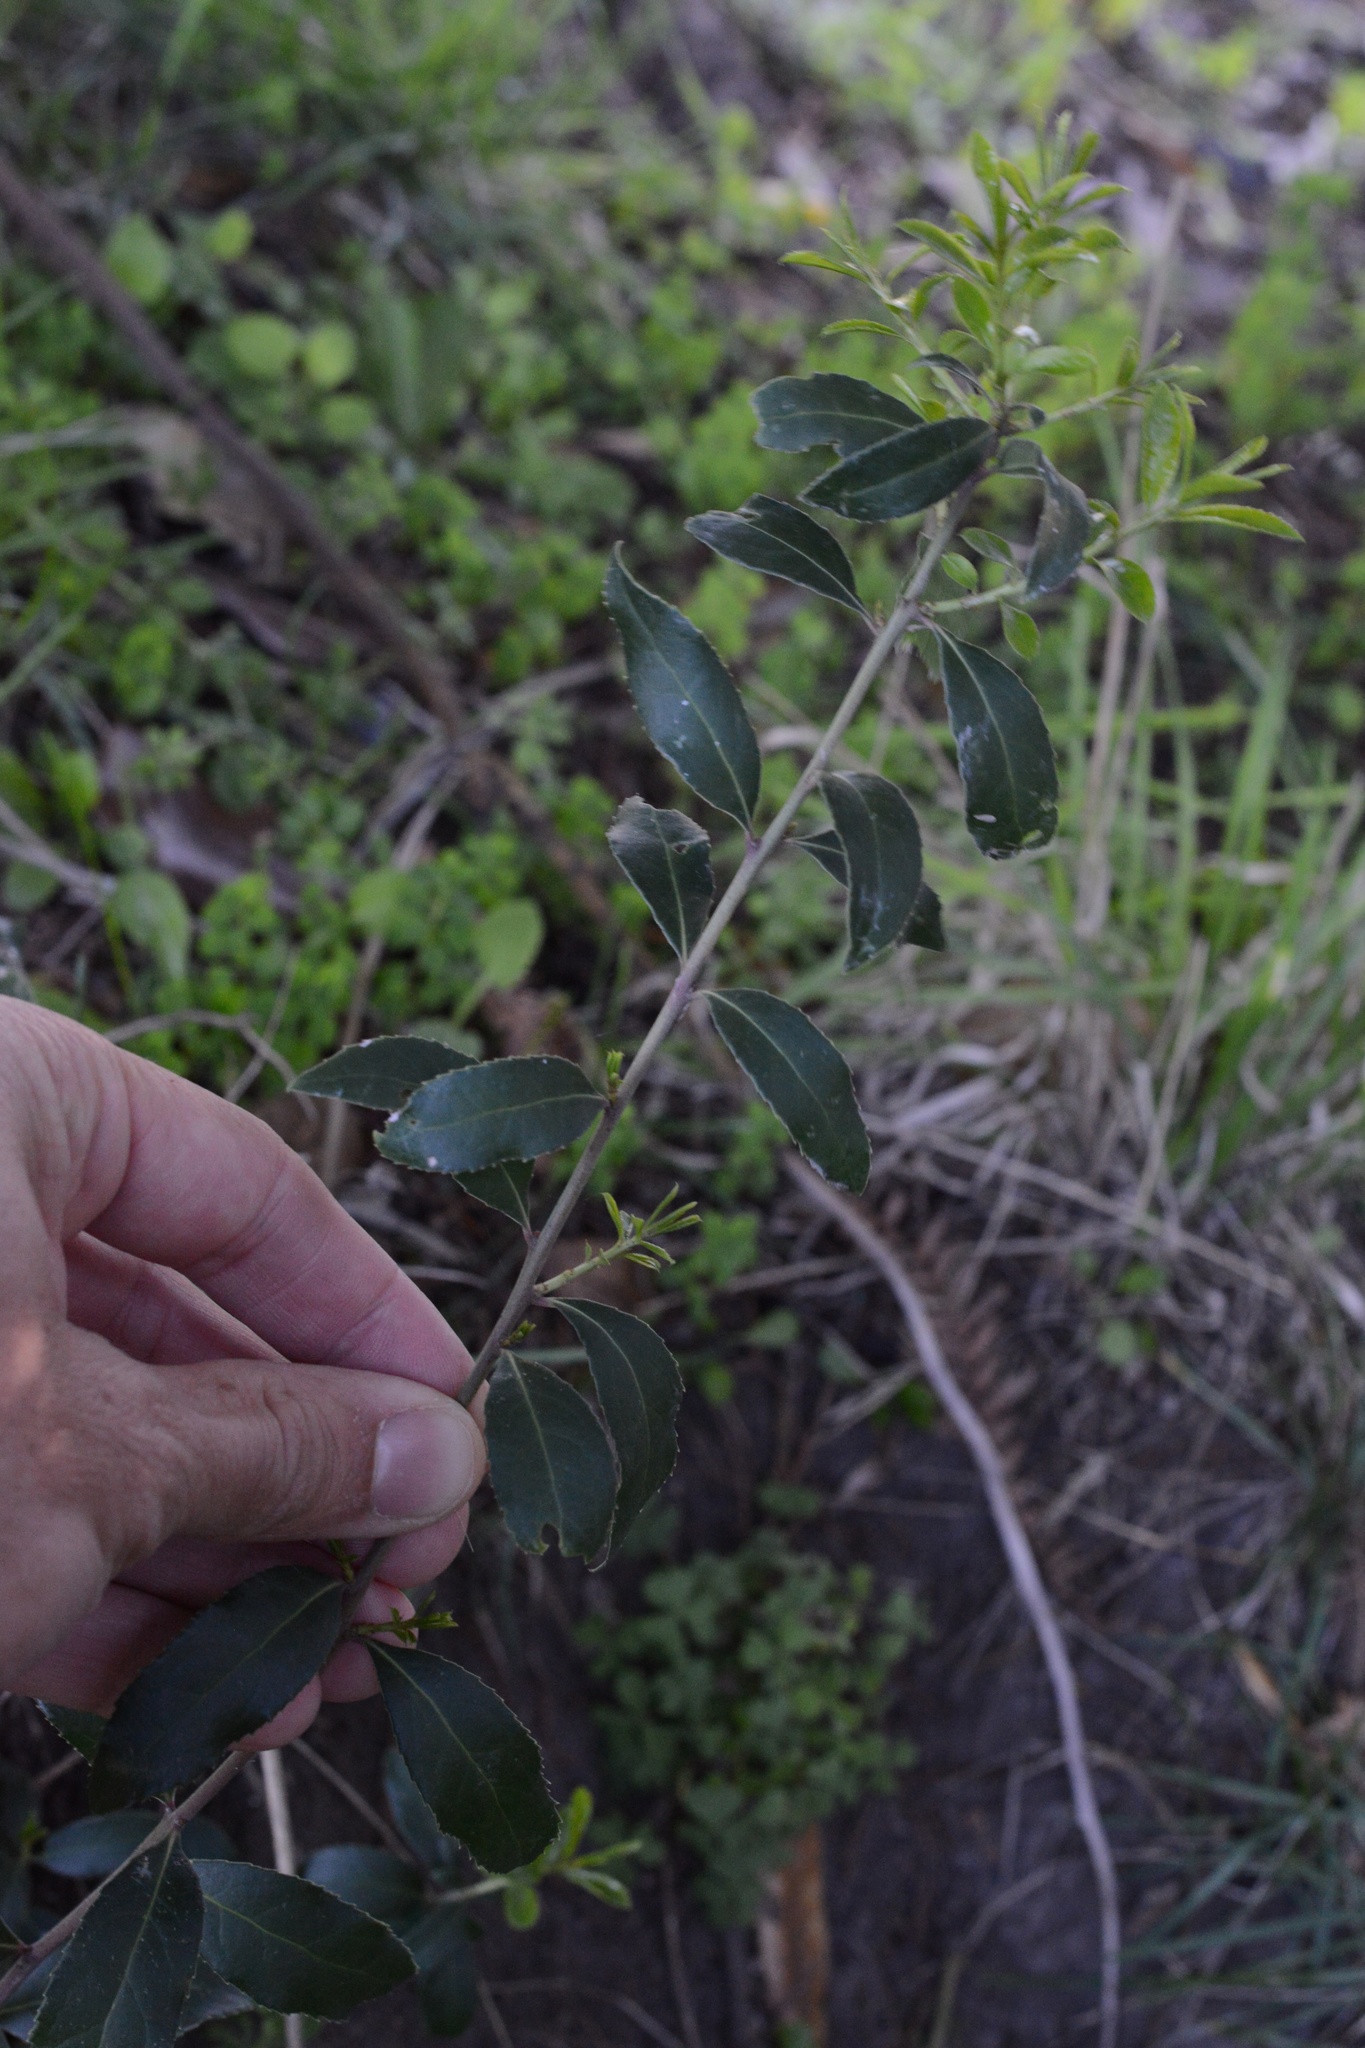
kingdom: Plantae
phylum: Tracheophyta
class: Magnoliopsida
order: Celastrales
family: Celastraceae
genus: Maytenus
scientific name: Maytenus boaria
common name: Mayten
